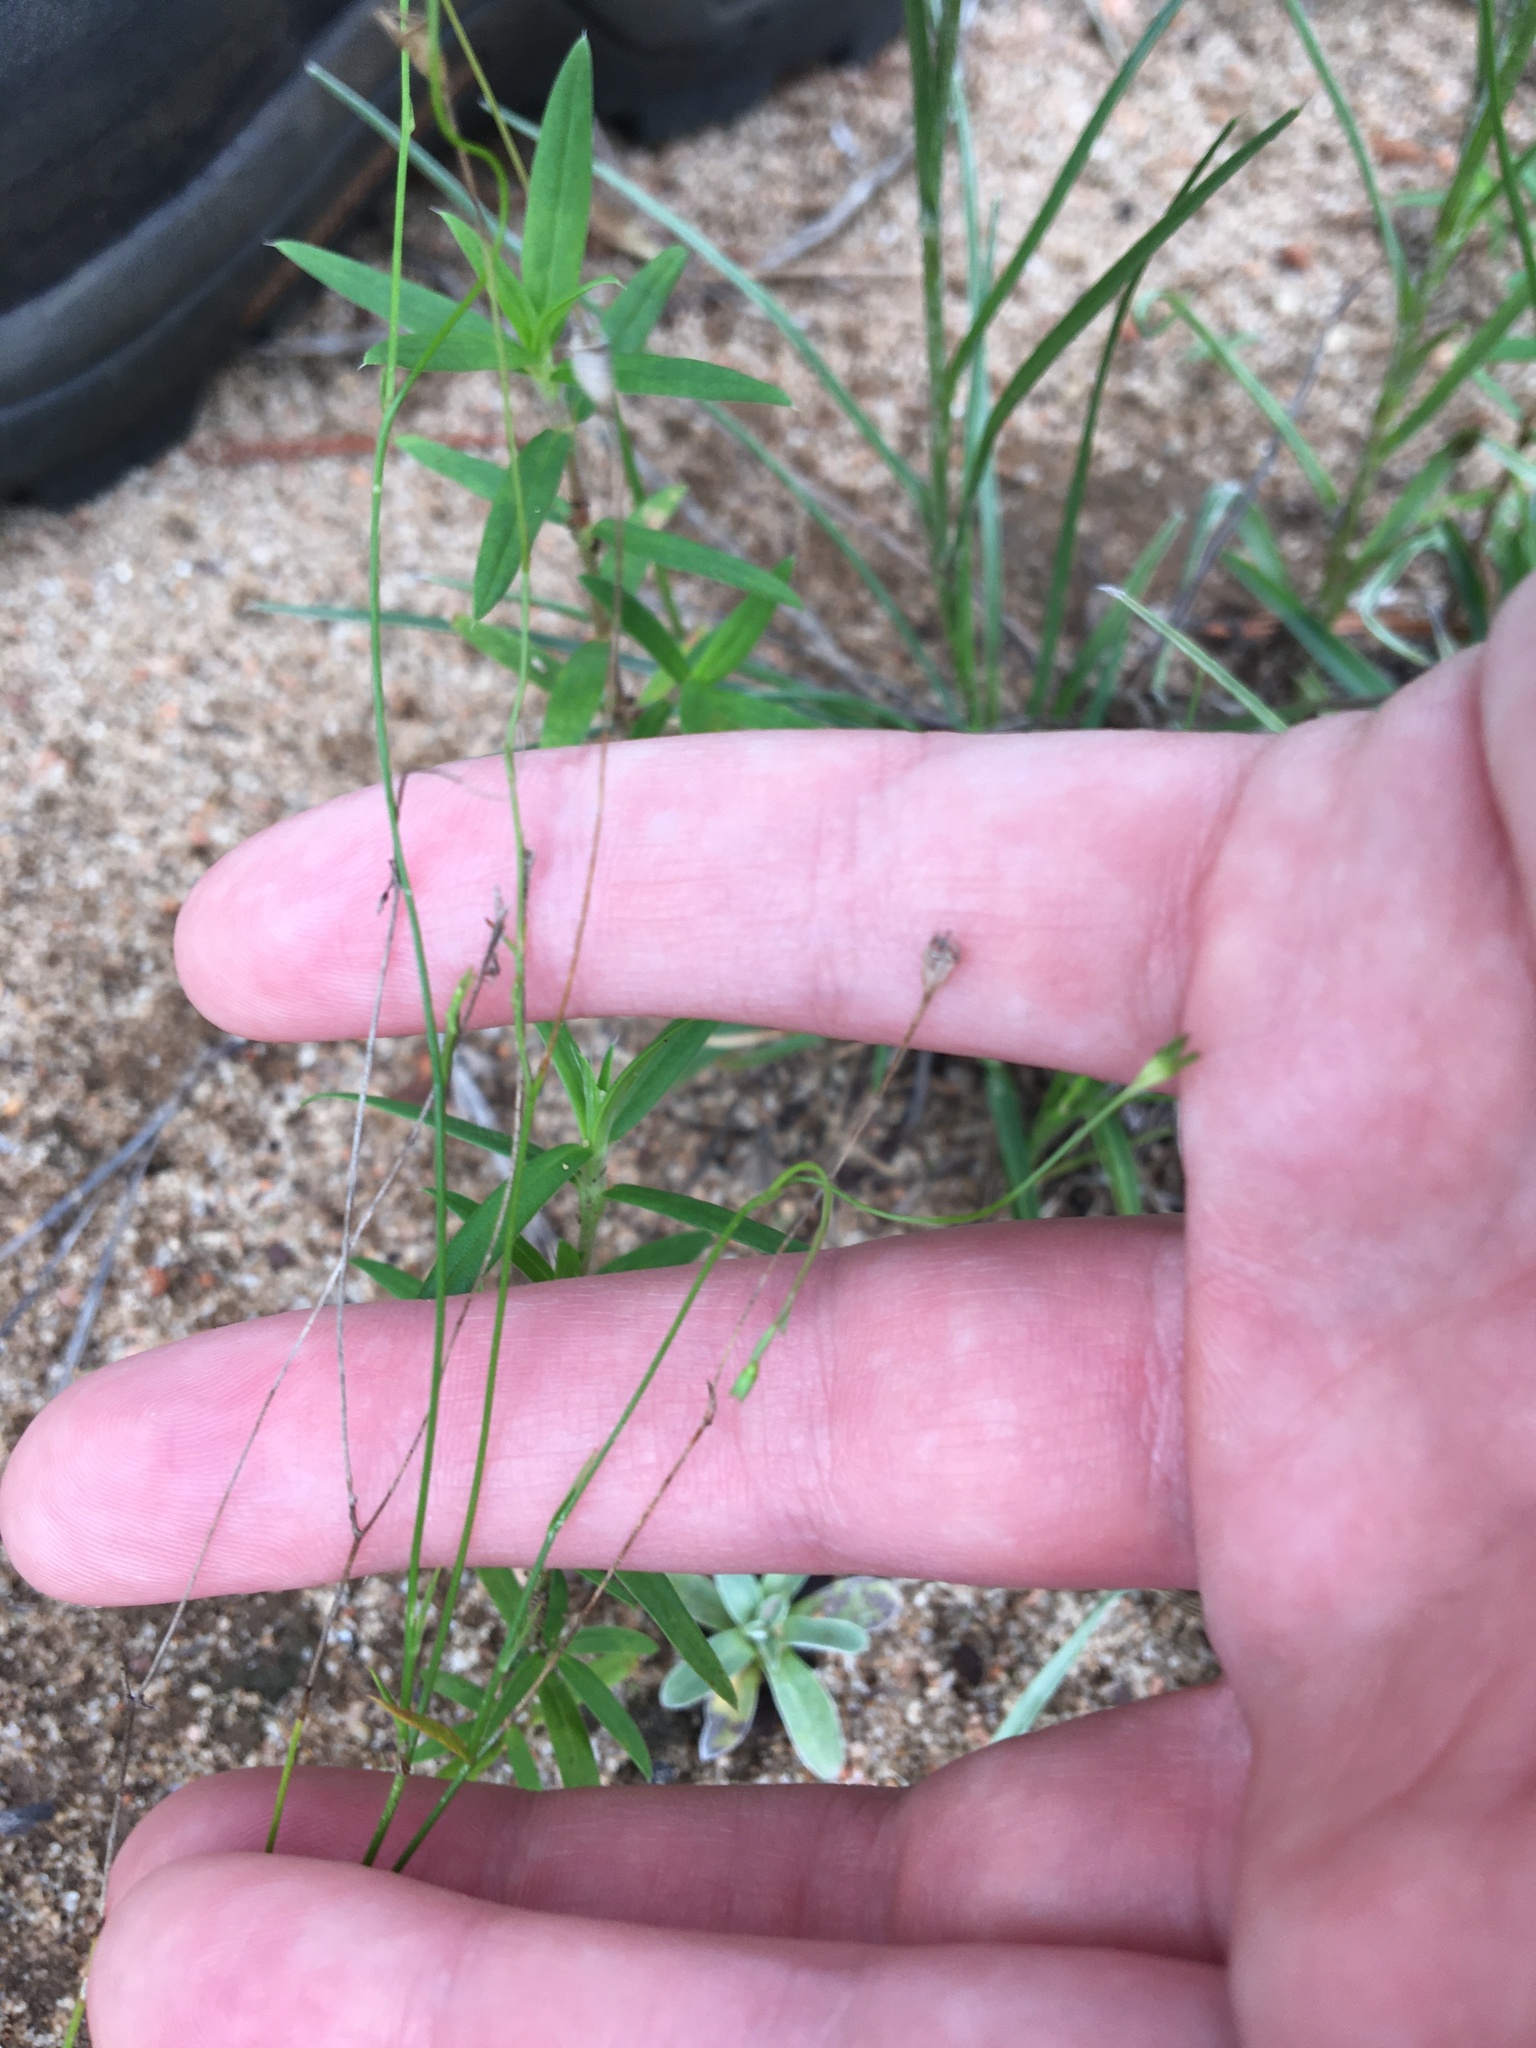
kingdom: Plantae
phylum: Tracheophyta
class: Magnoliopsida
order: Asterales
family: Campanulaceae
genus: Wahlenbergia
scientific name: Wahlenbergia marginata
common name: Southern rockbell
